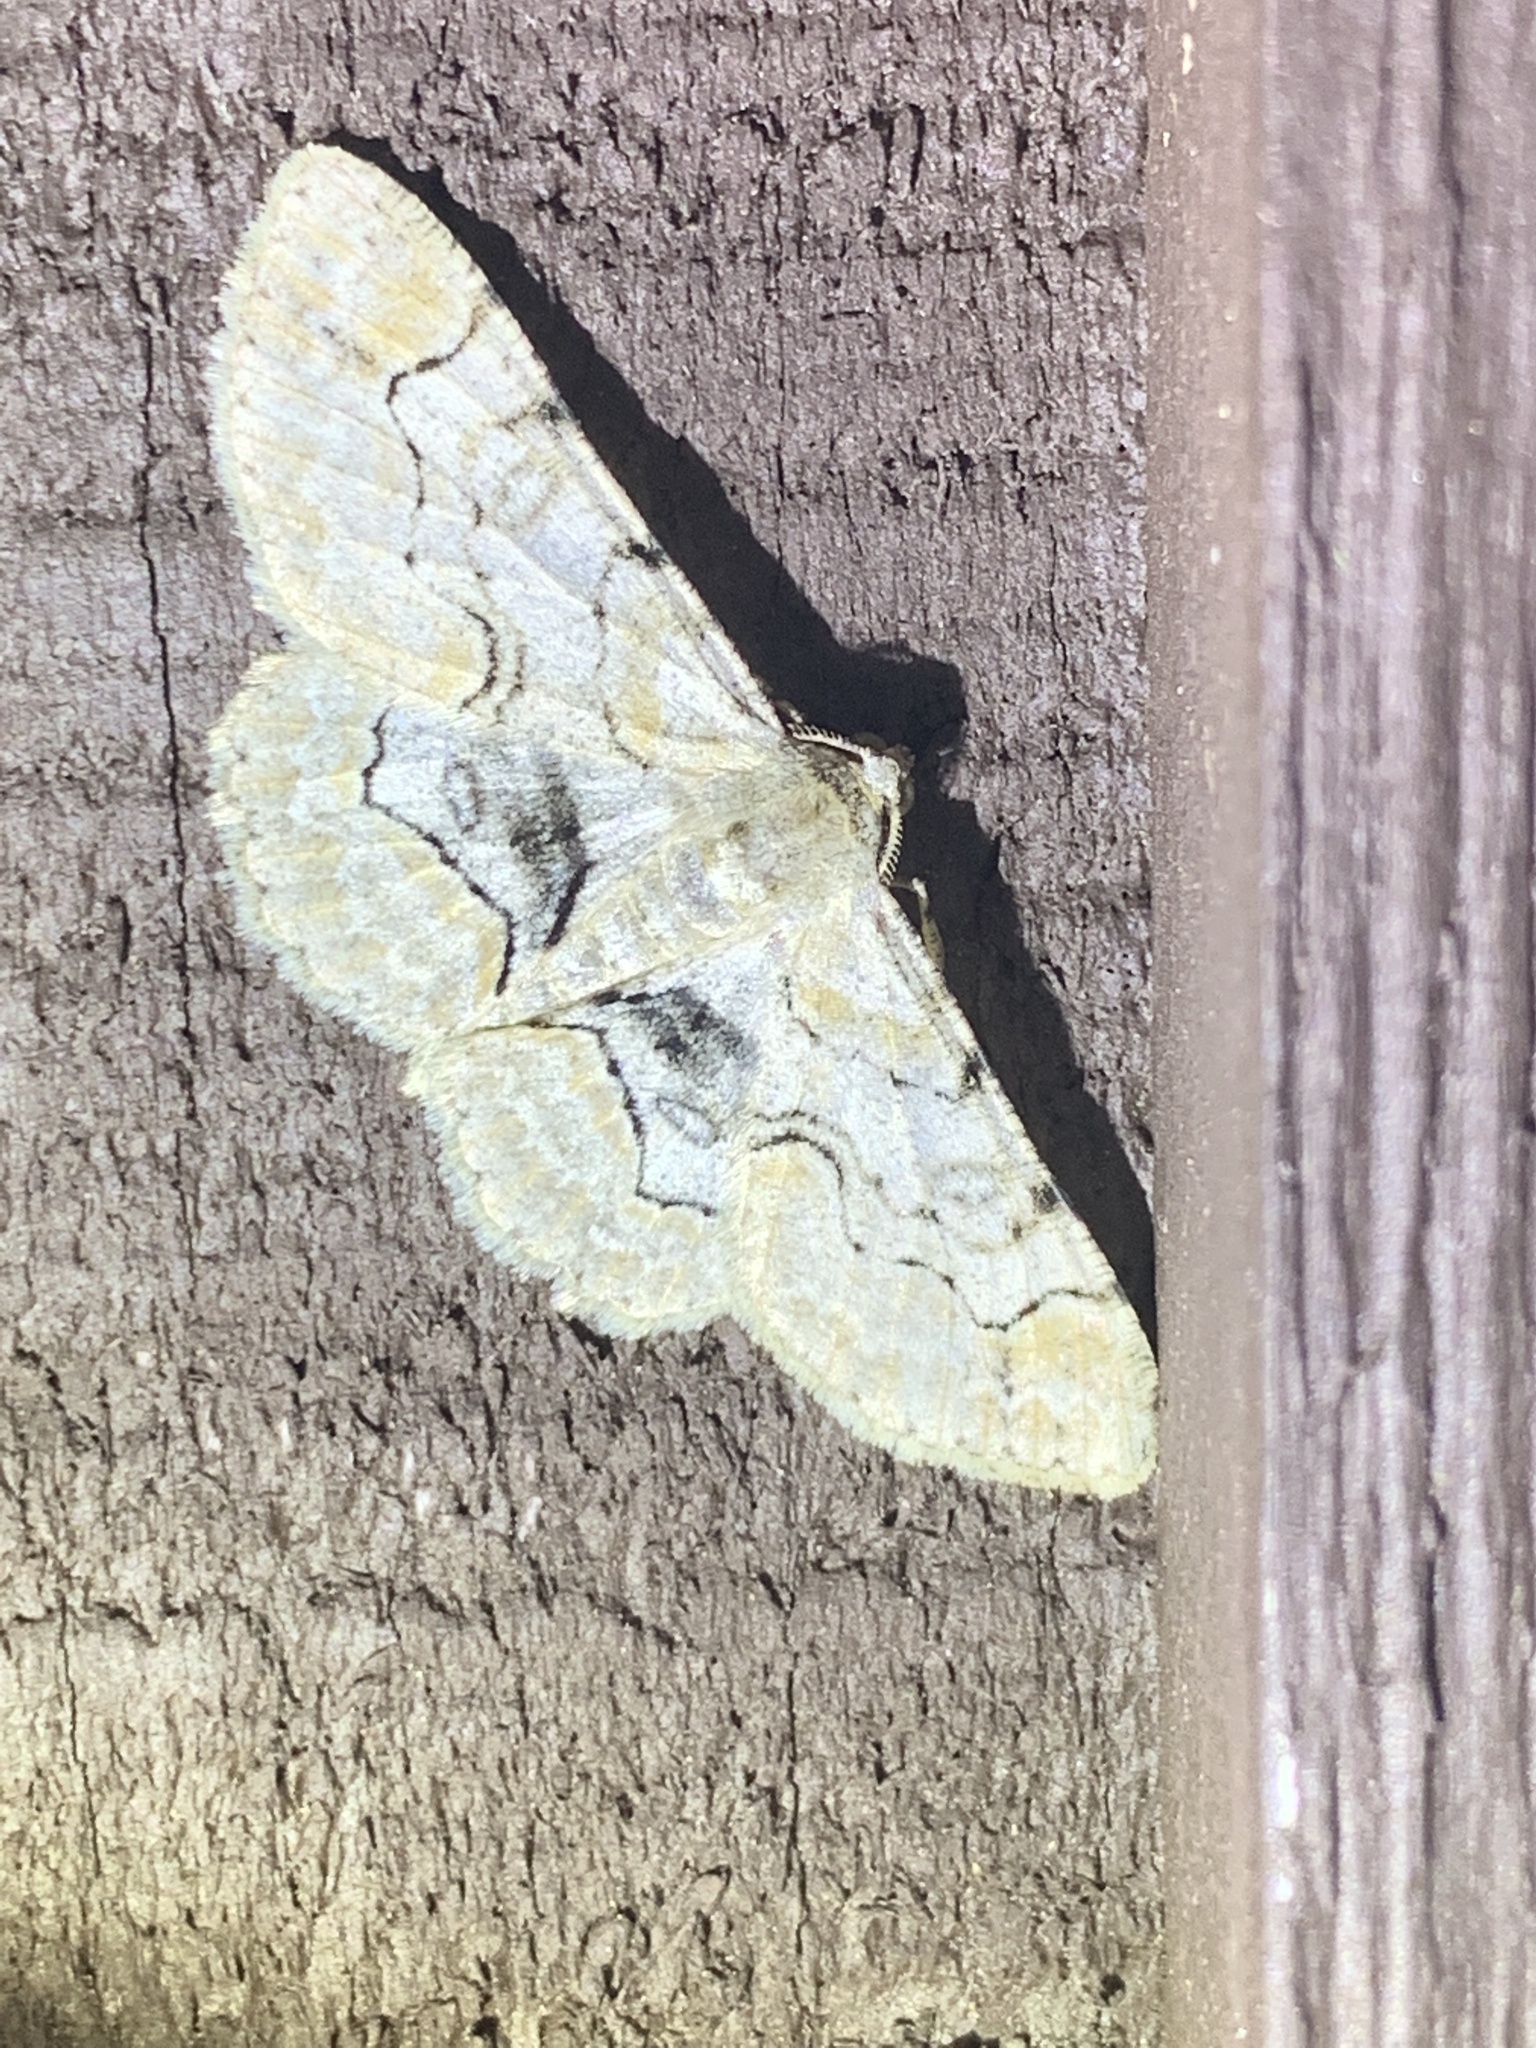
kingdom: Animalia
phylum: Arthropoda
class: Insecta
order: Lepidoptera
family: Geometridae
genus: Iridopsis
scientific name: Iridopsis larvaria
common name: Bent-line gray
